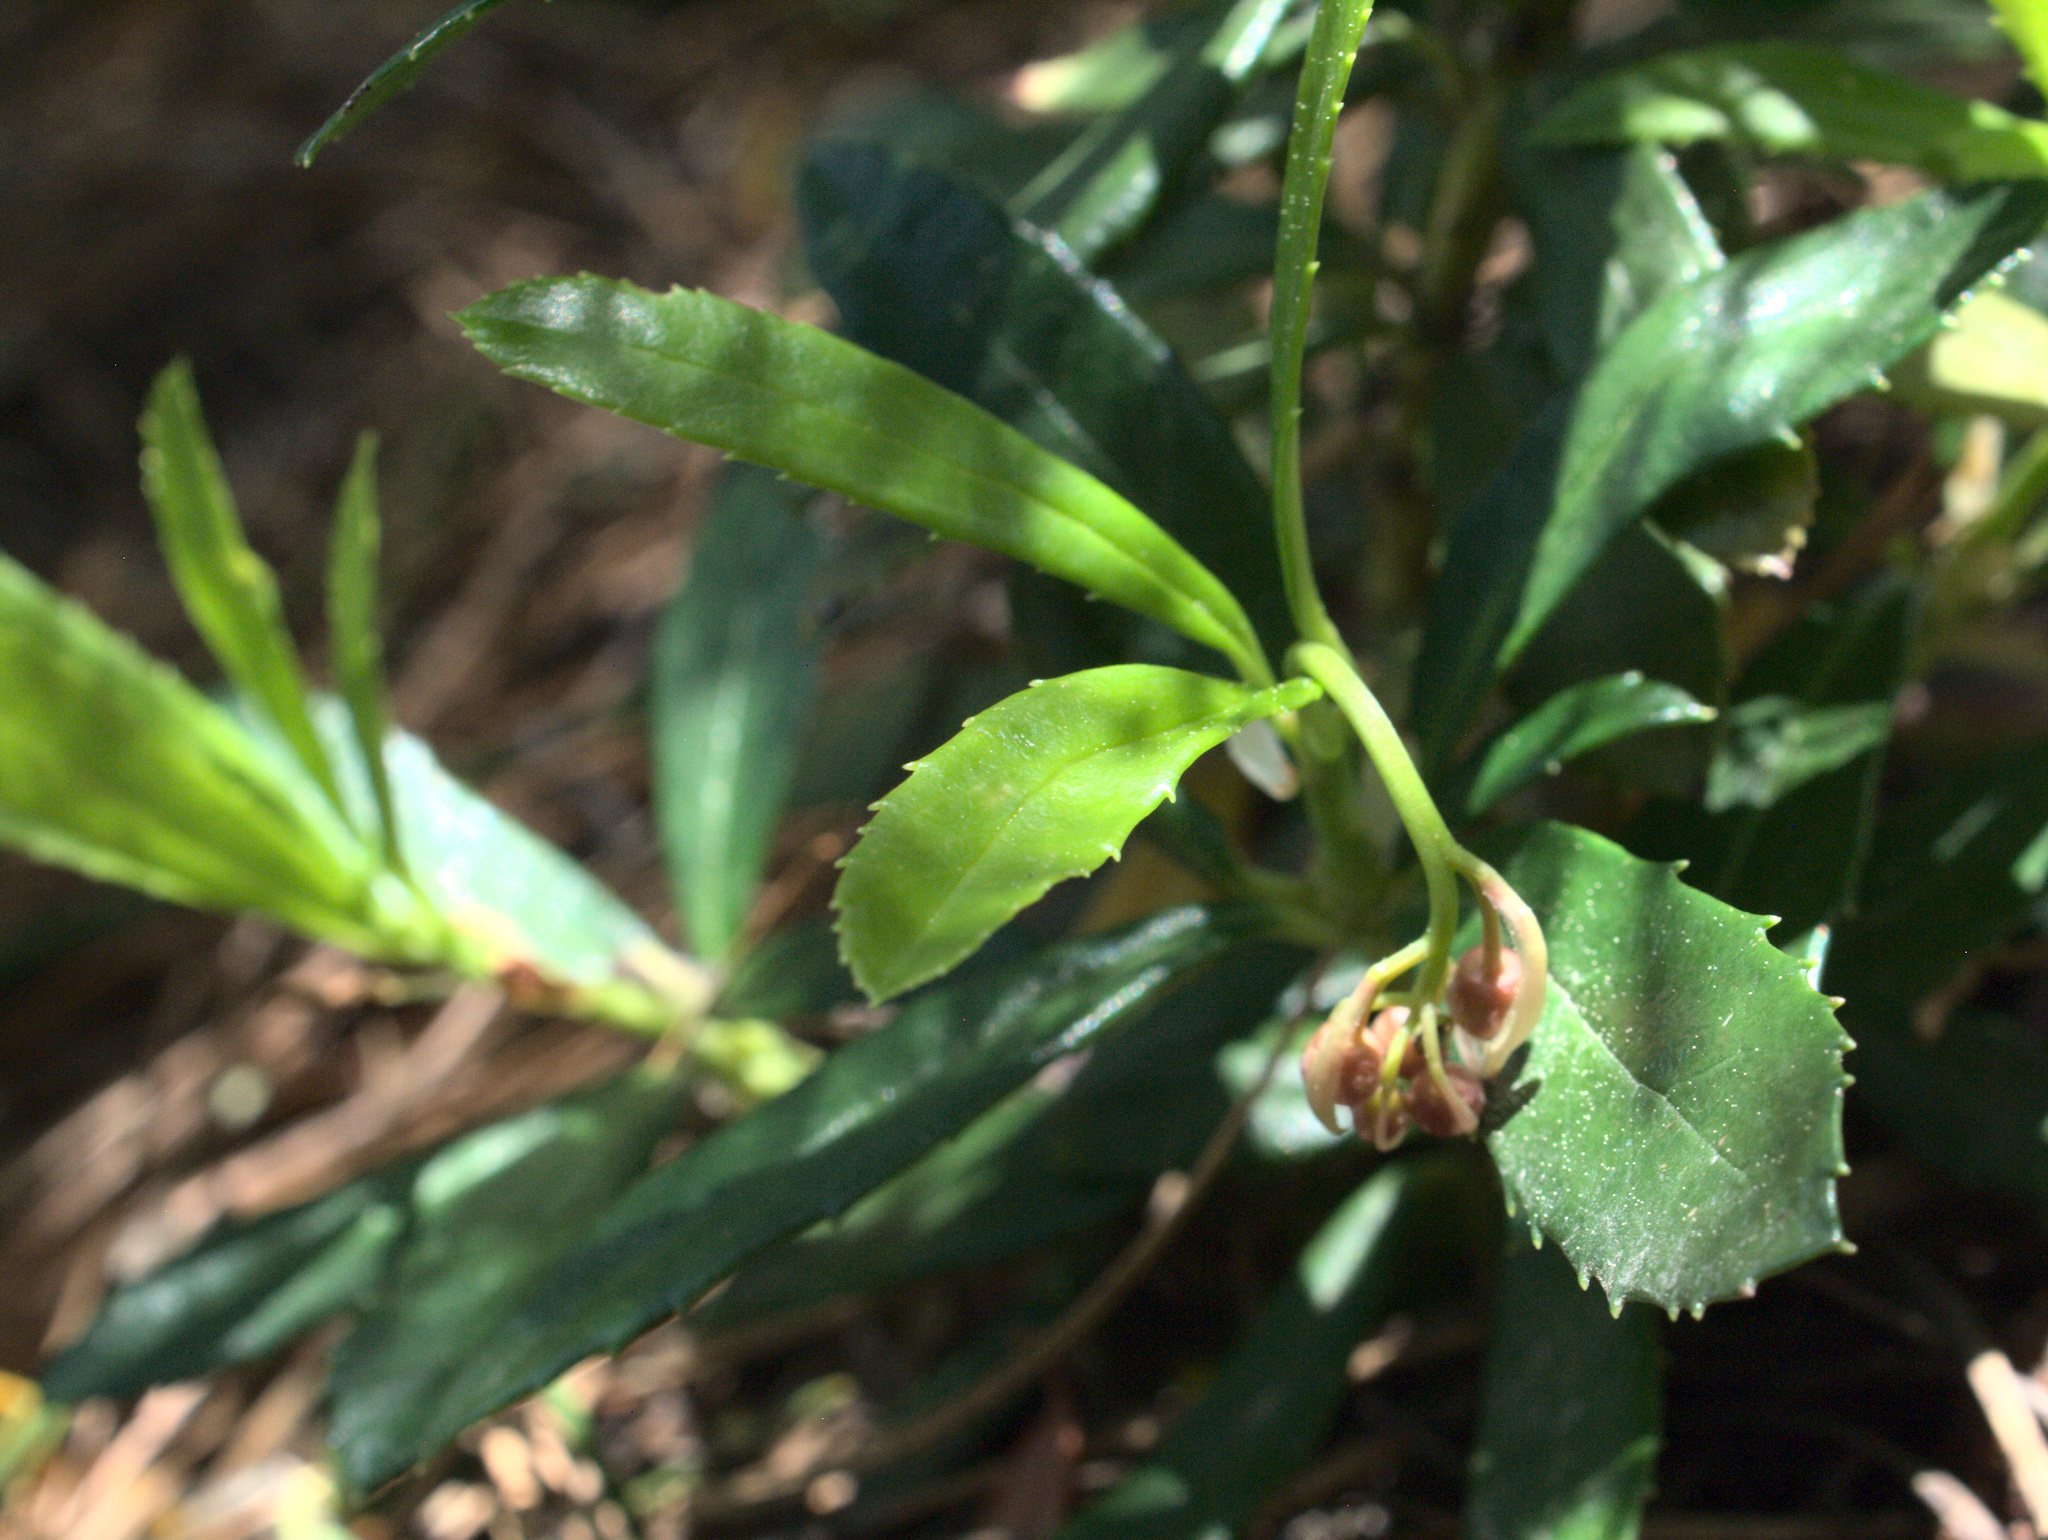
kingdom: Plantae
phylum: Tracheophyta
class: Magnoliopsida
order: Ericales
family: Ericaceae
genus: Chimaphila
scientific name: Chimaphila umbellata
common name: Pipsissewa
